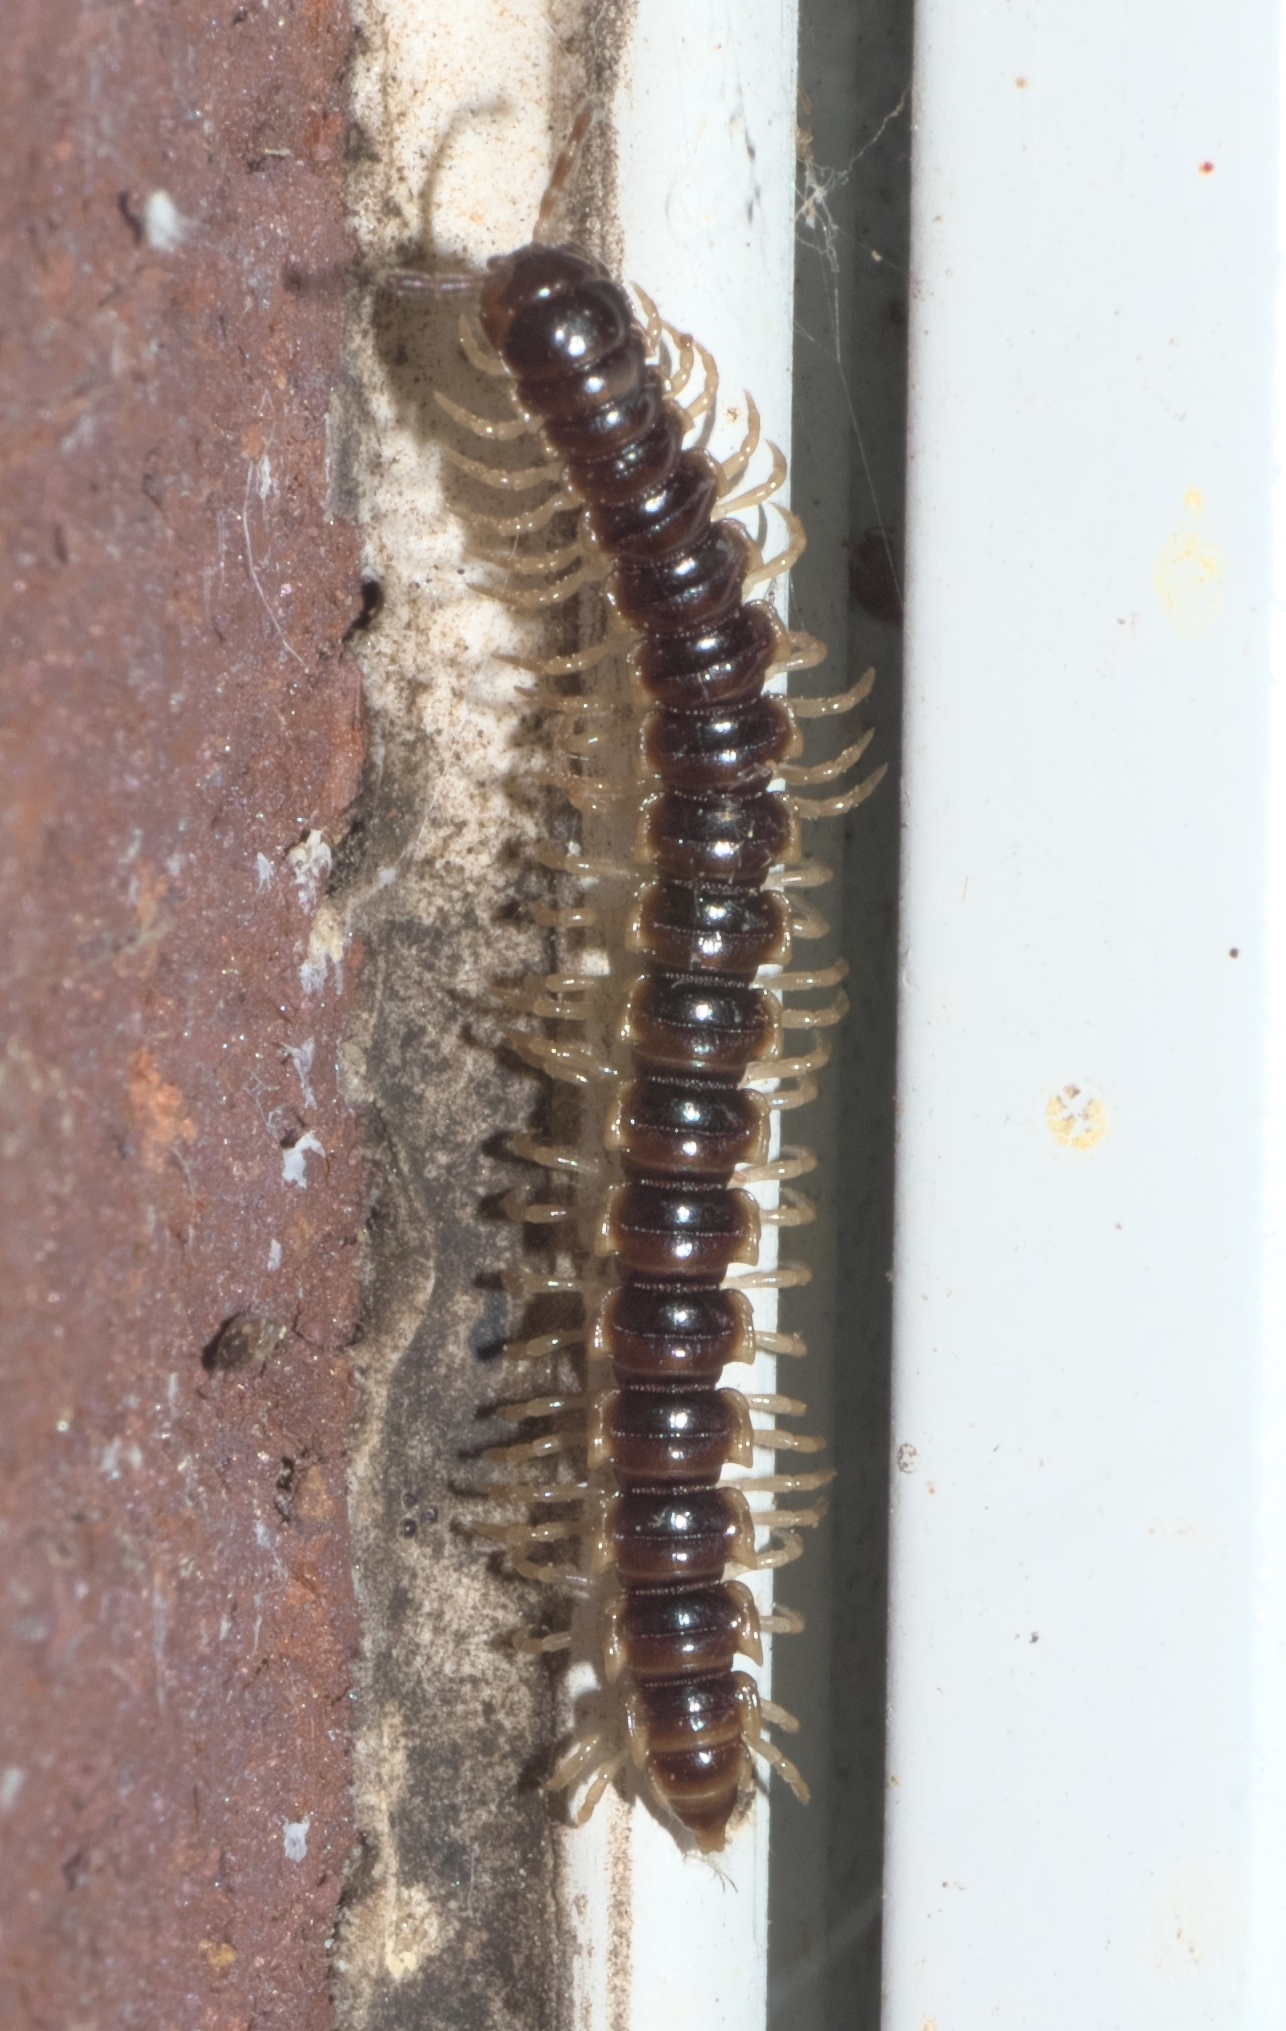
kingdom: Animalia
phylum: Arthropoda
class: Diplopoda
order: Polydesmida
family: Paradoxosomatidae
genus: Oxidus
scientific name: Oxidus gracilis
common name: Greenhouse millipede
